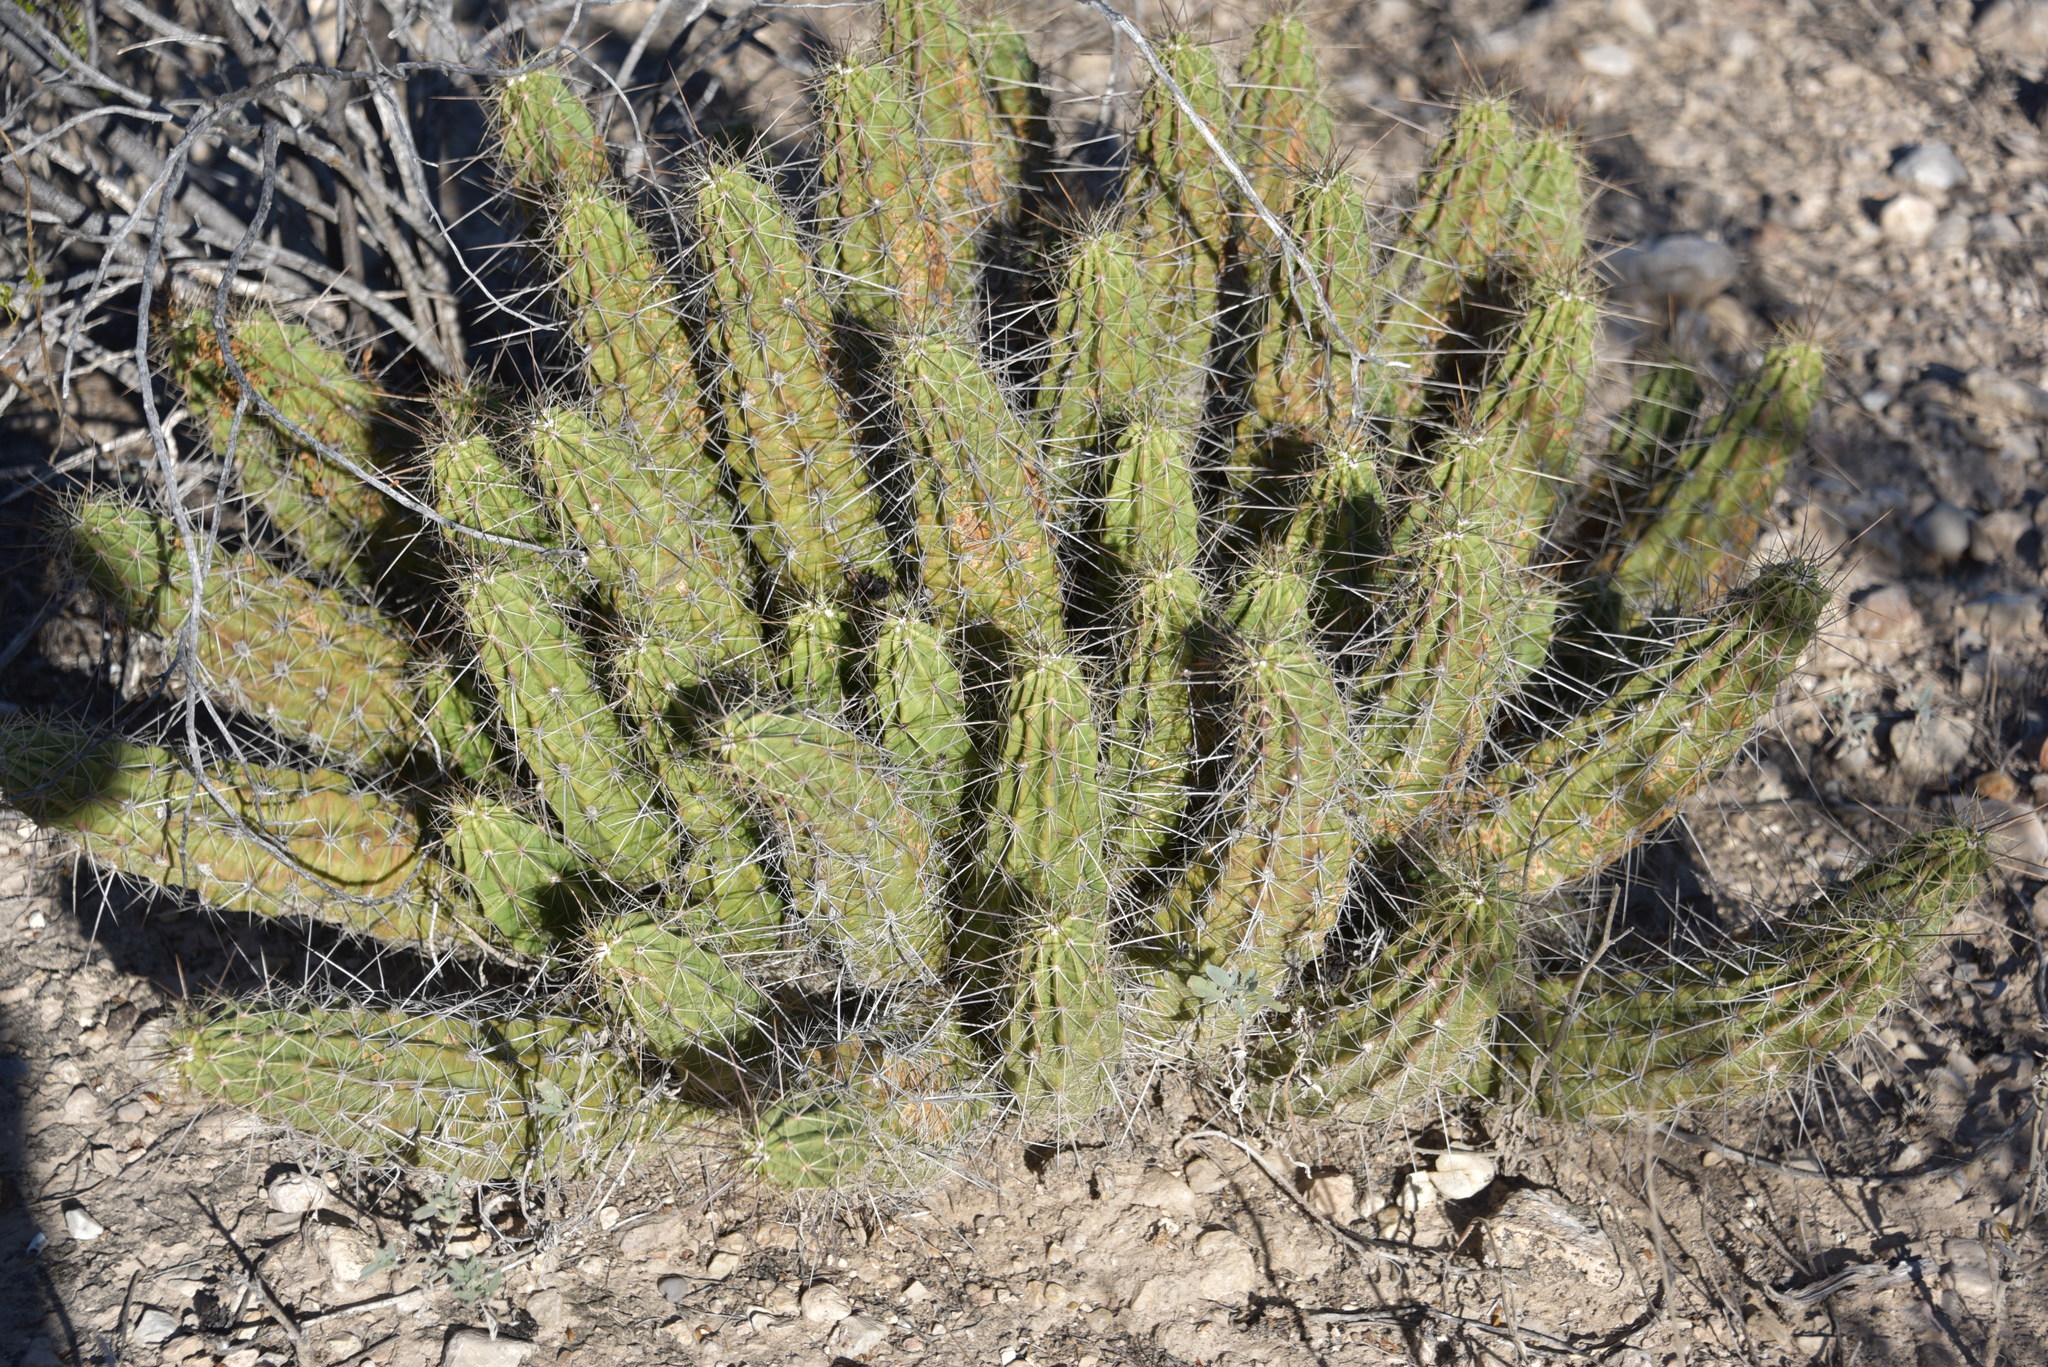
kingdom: Plantae
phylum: Tracheophyta
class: Magnoliopsida
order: Caryophyllales
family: Cactaceae
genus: Echinocereus
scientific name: Echinocereus enneacanthus
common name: Pitaya
